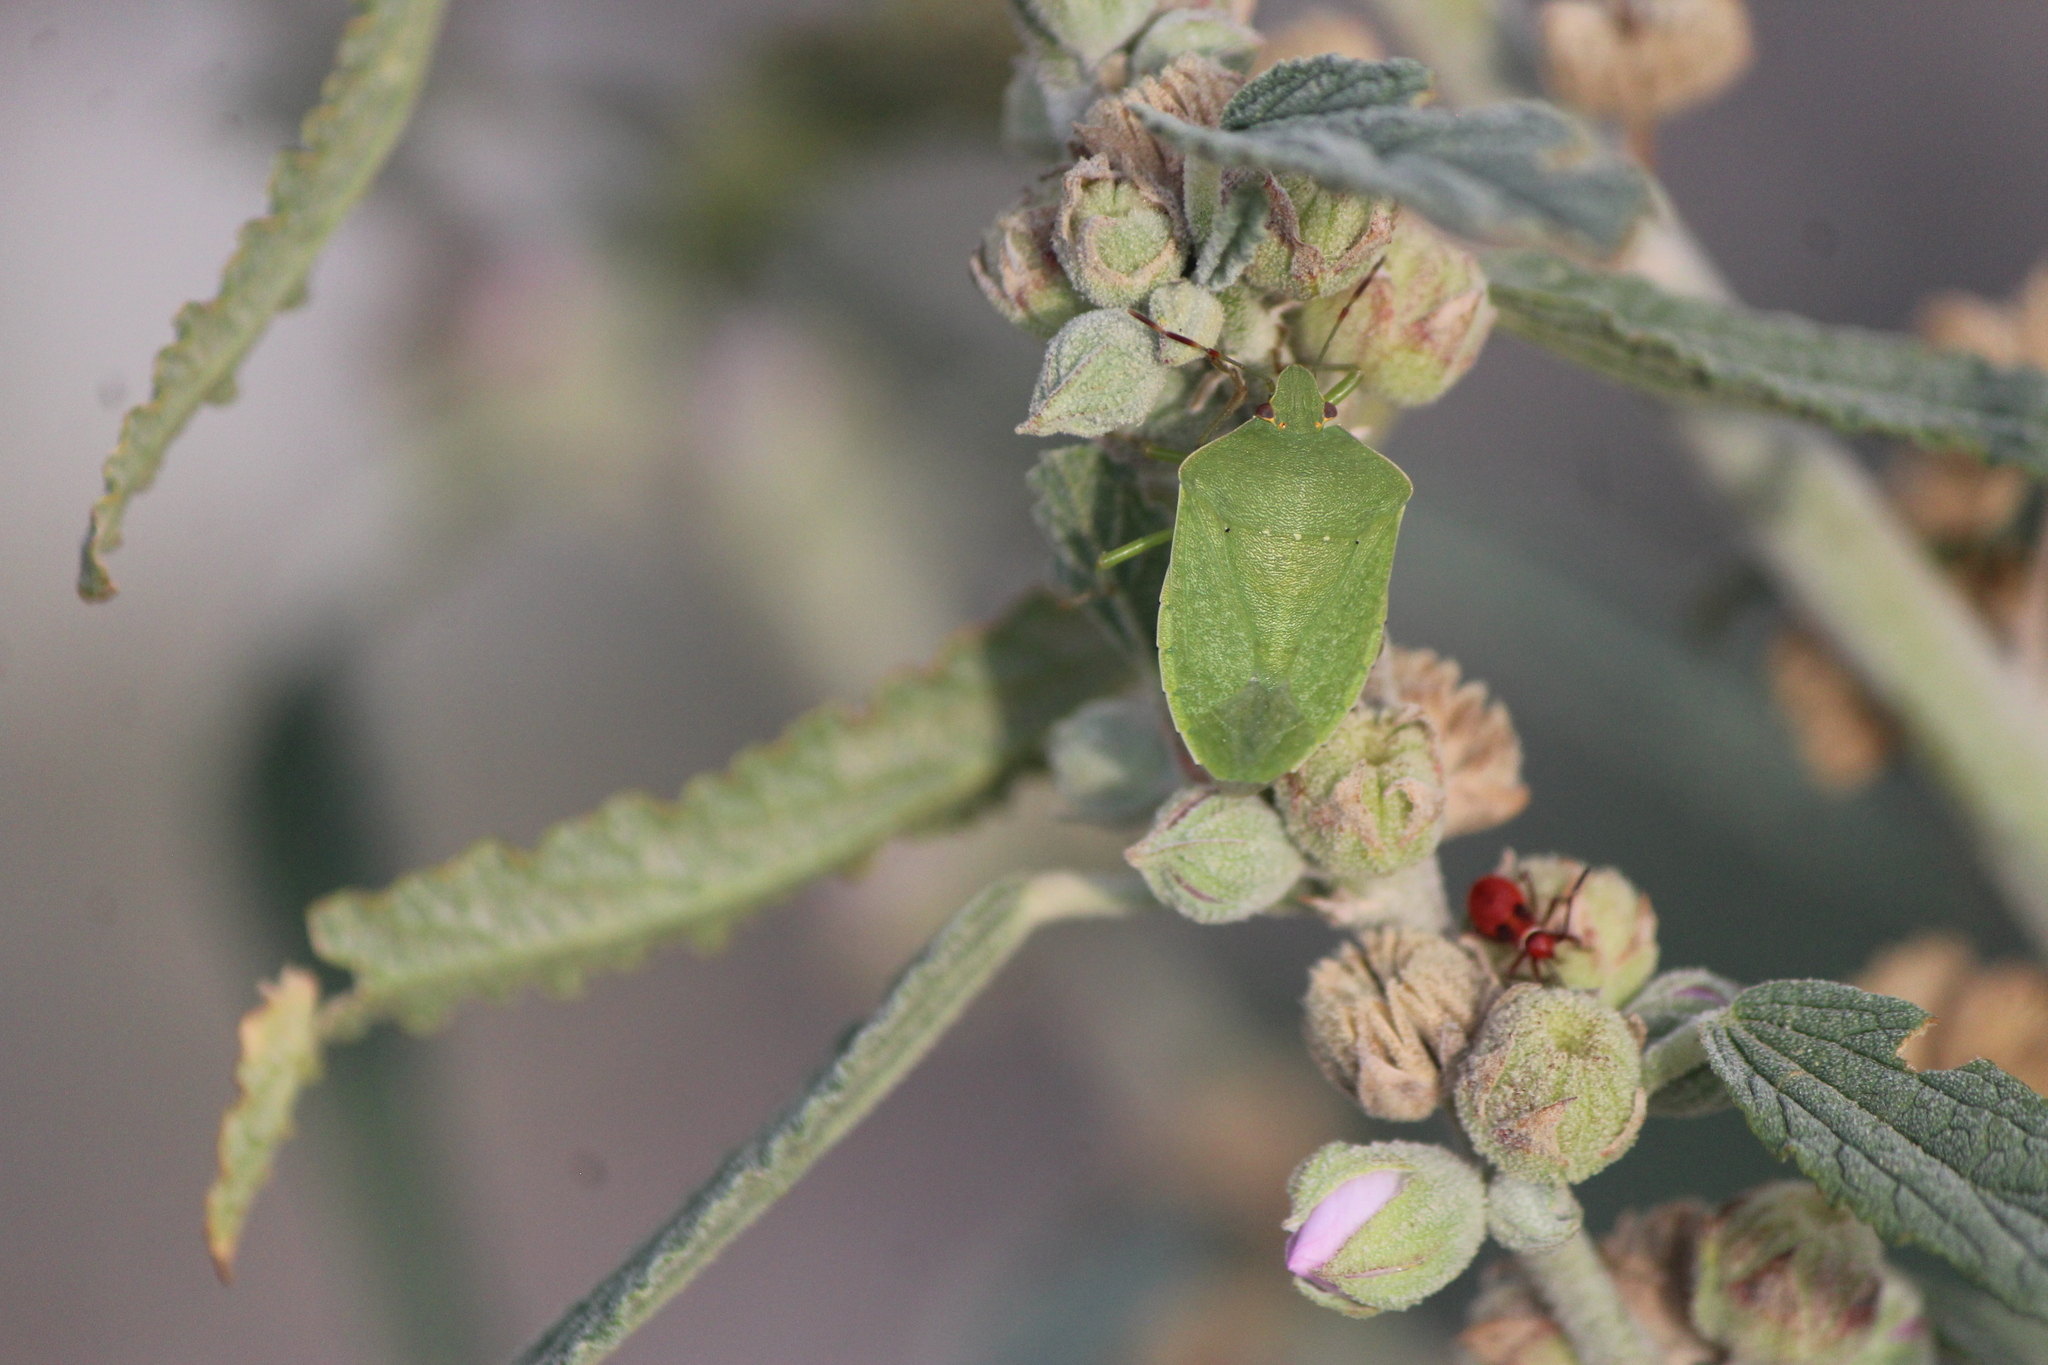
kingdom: Animalia
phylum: Arthropoda
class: Insecta
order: Hemiptera
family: Pentatomidae
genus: Nezara
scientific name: Nezara viridula
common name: Southern green stink bug
